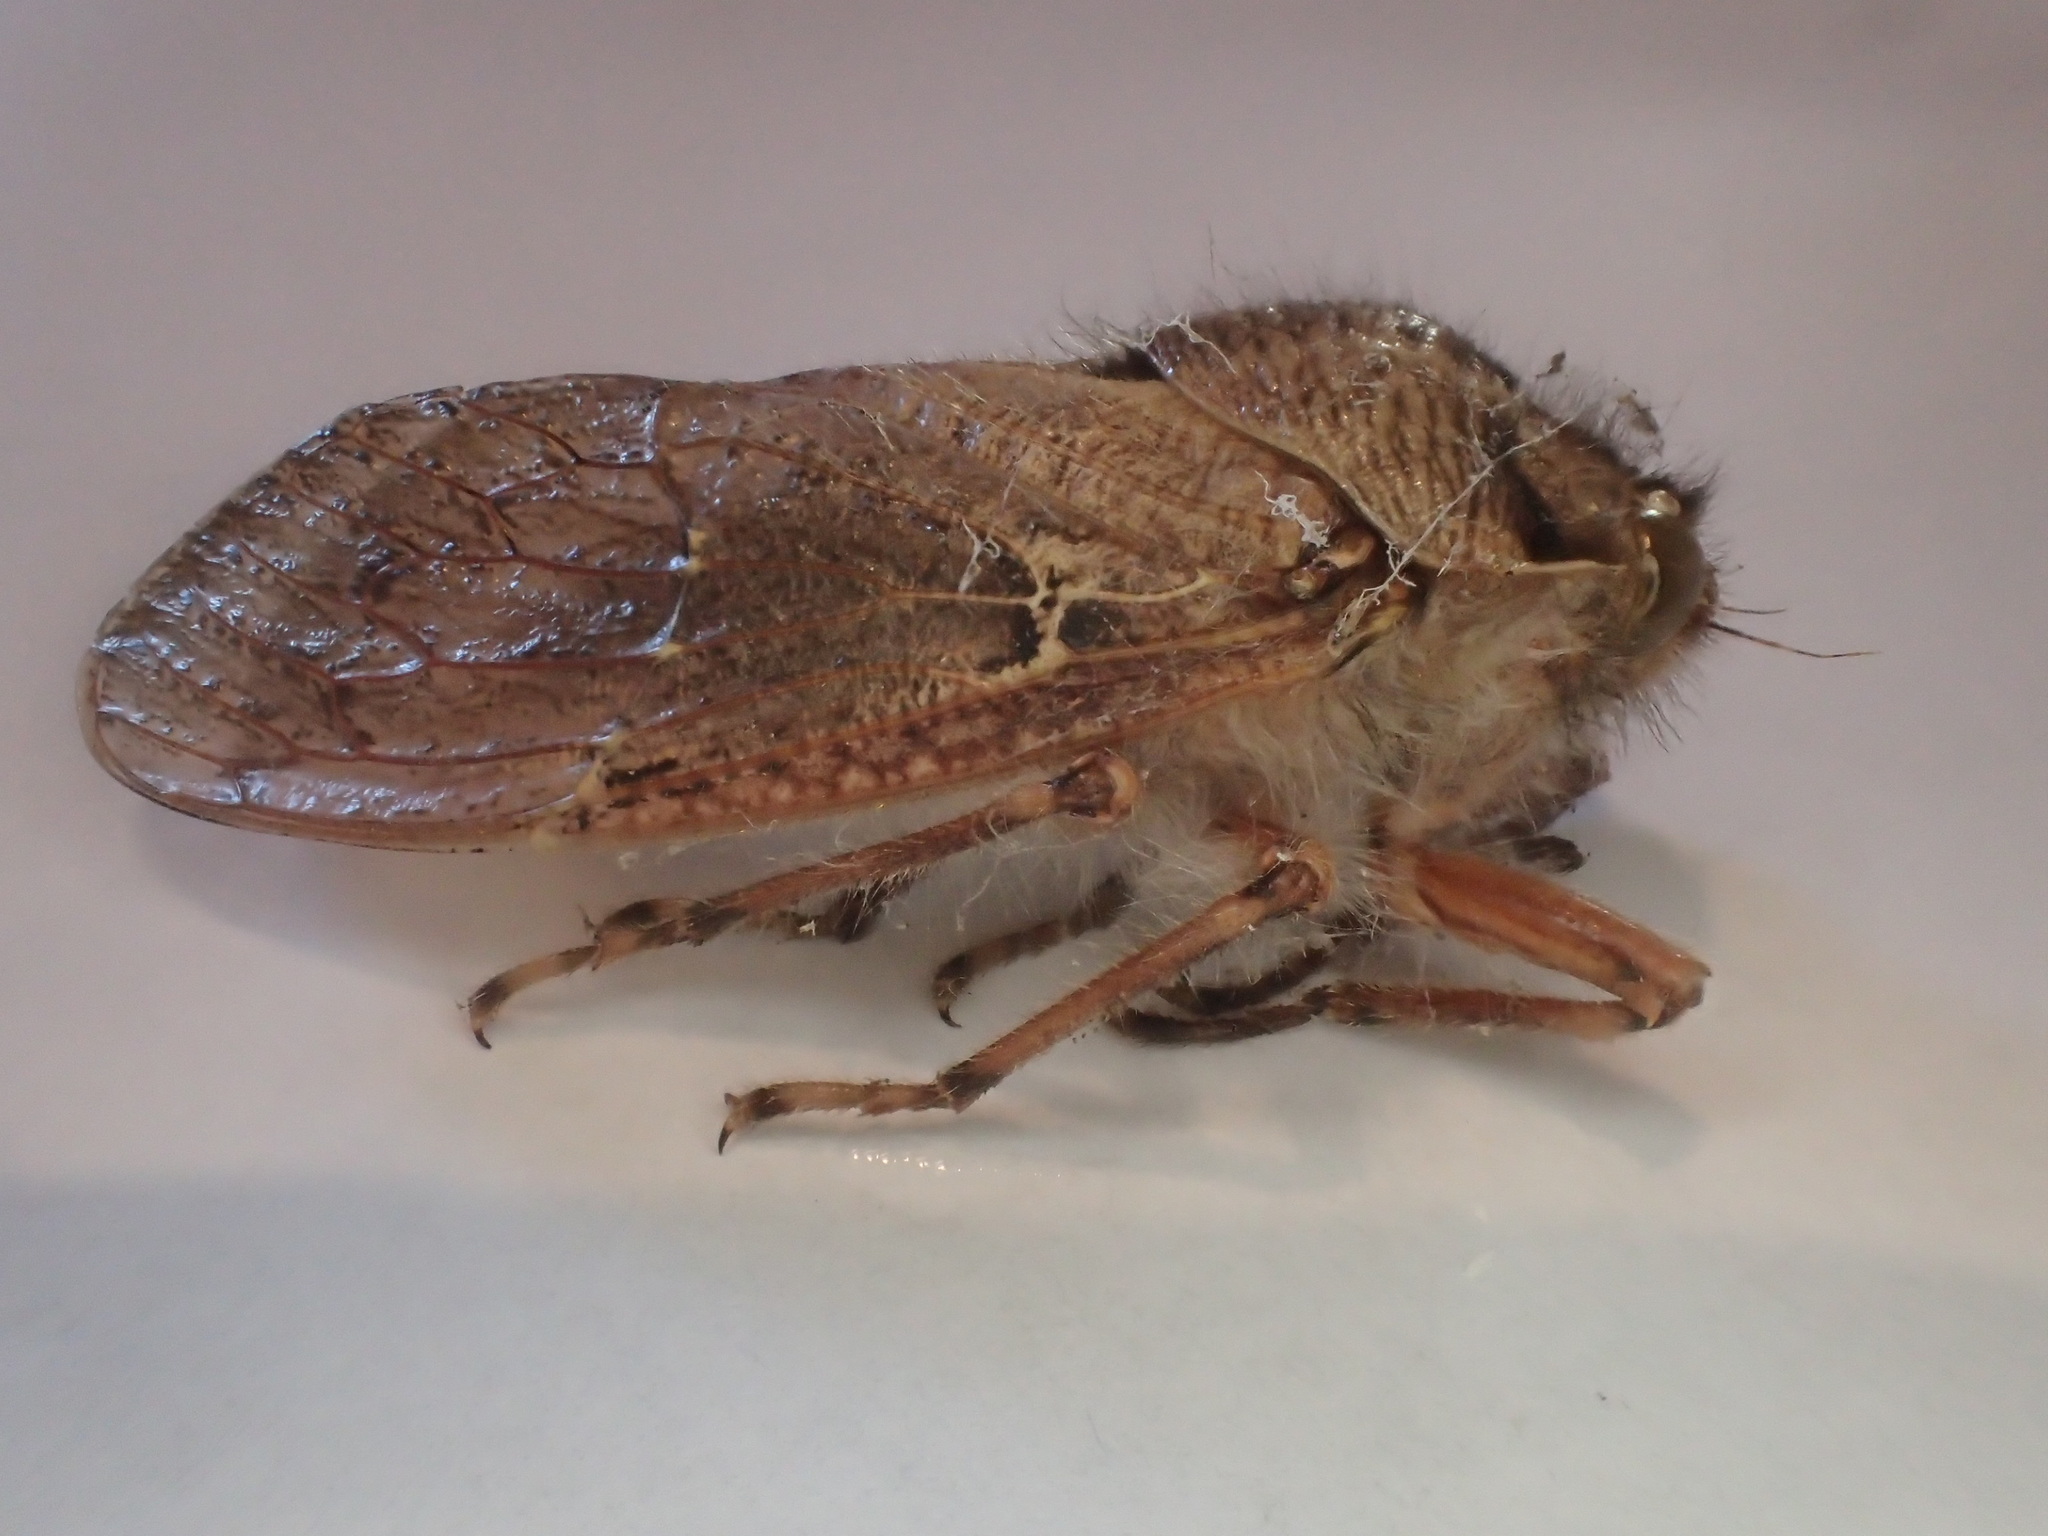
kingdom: Animalia
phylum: Arthropoda
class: Insecta
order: Hemiptera
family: Tettigarctidae
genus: Tettigarcta
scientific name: Tettigarcta tomentosa
